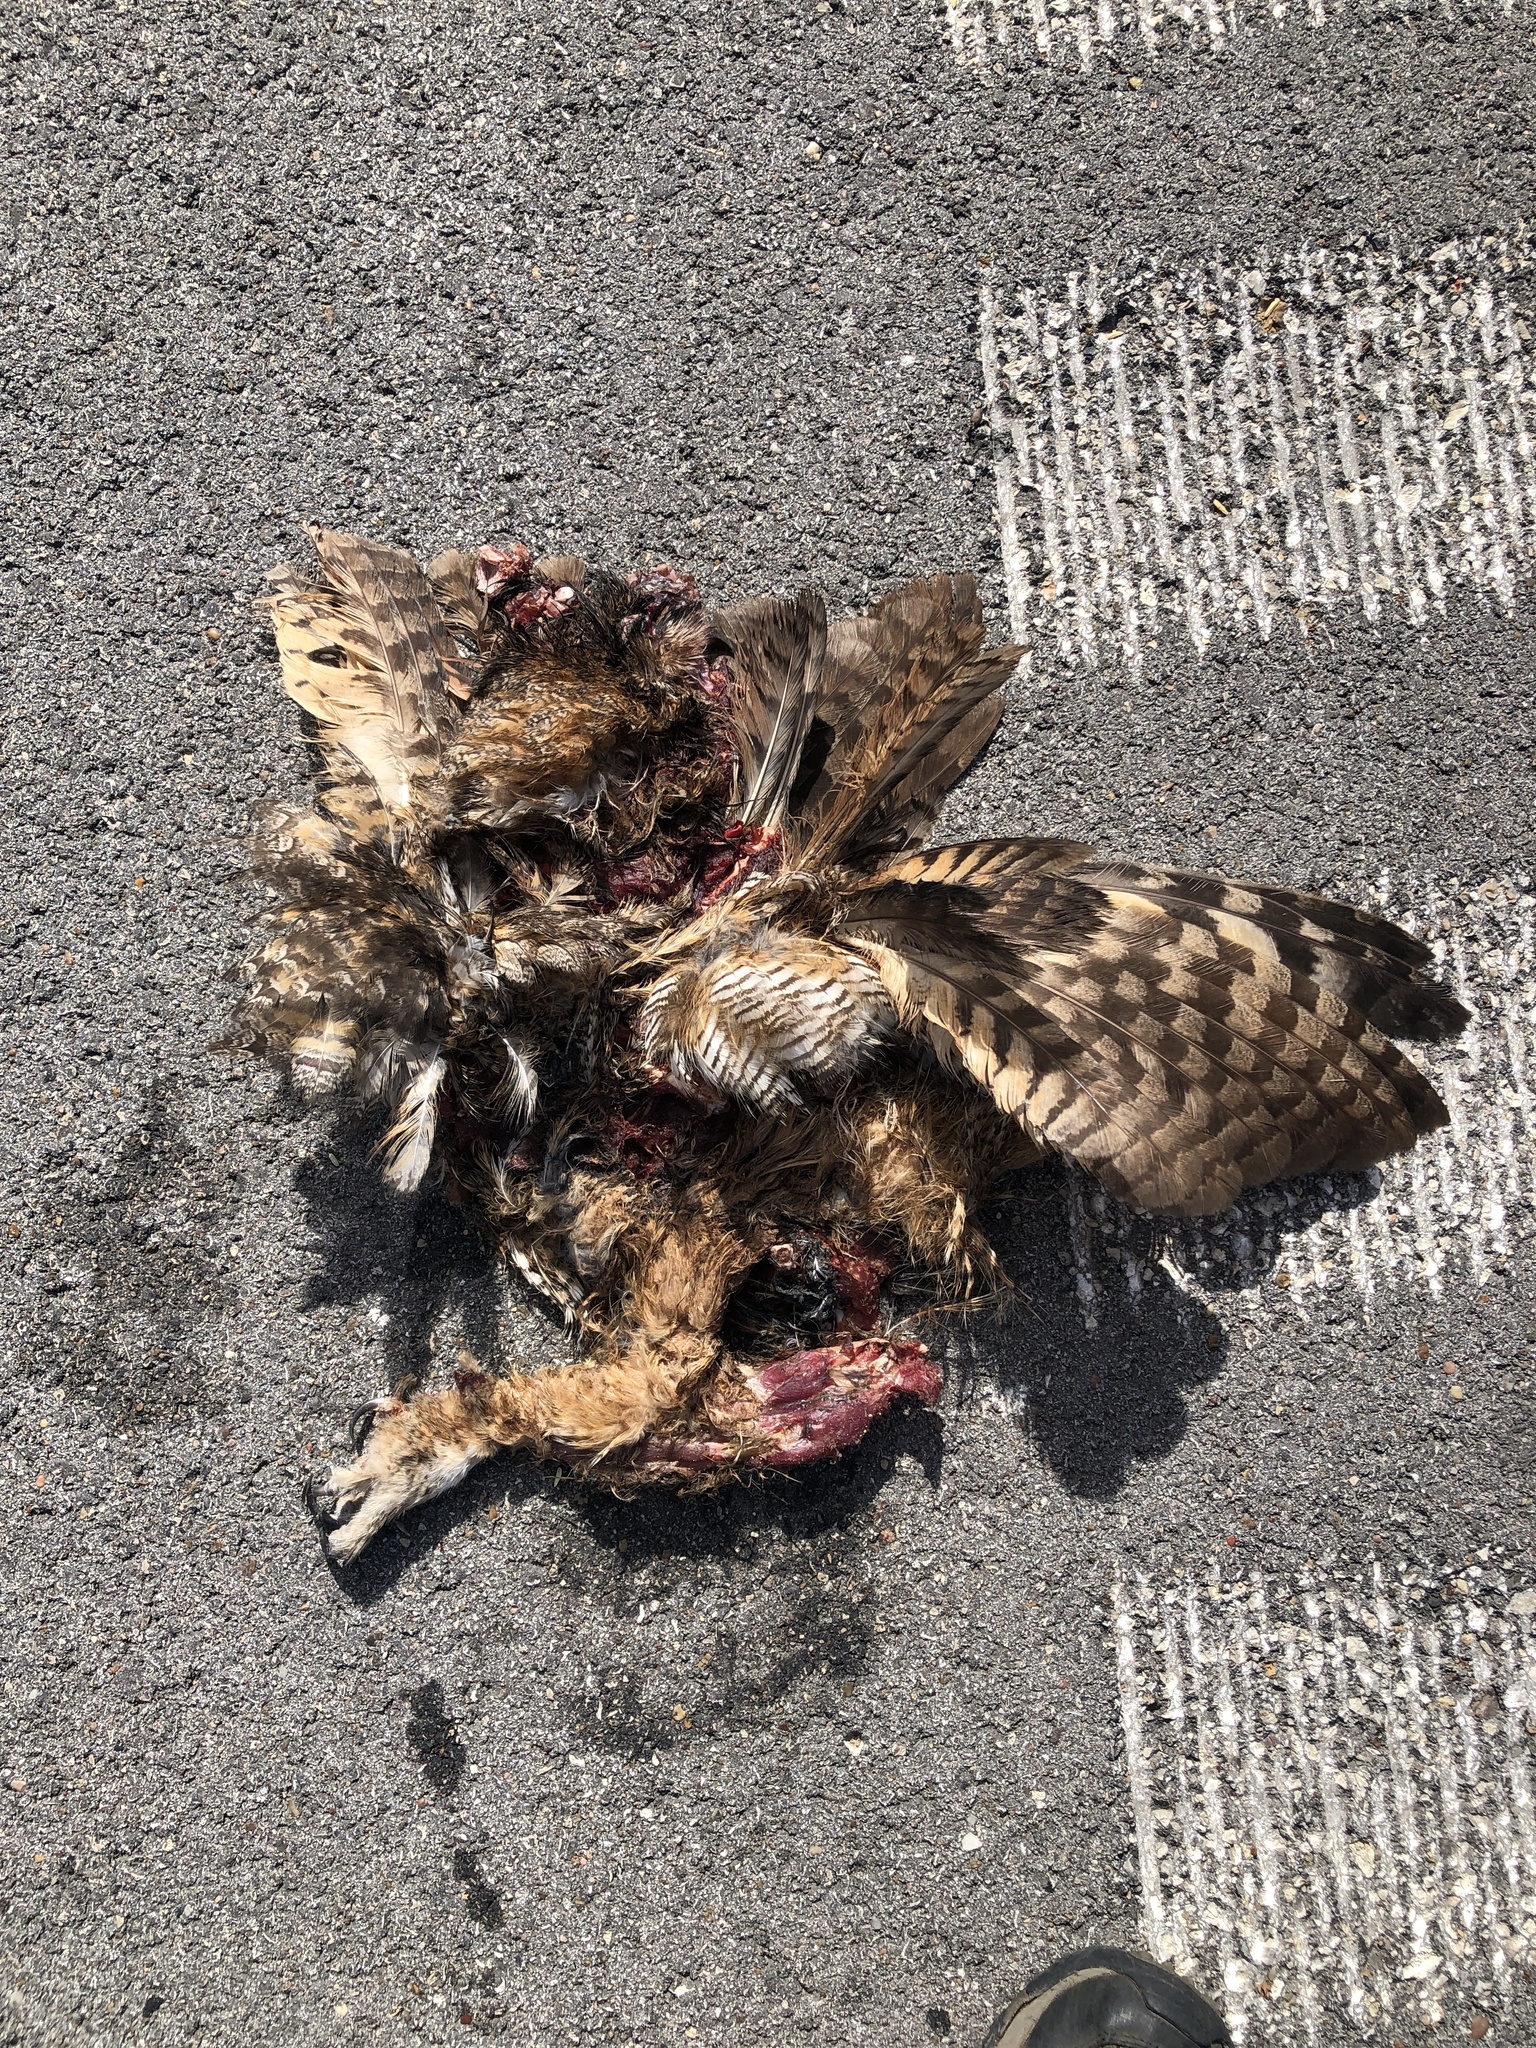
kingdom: Animalia
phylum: Chordata
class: Aves
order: Strigiformes
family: Strigidae
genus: Bubo
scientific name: Bubo virginianus
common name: Great horned owl
